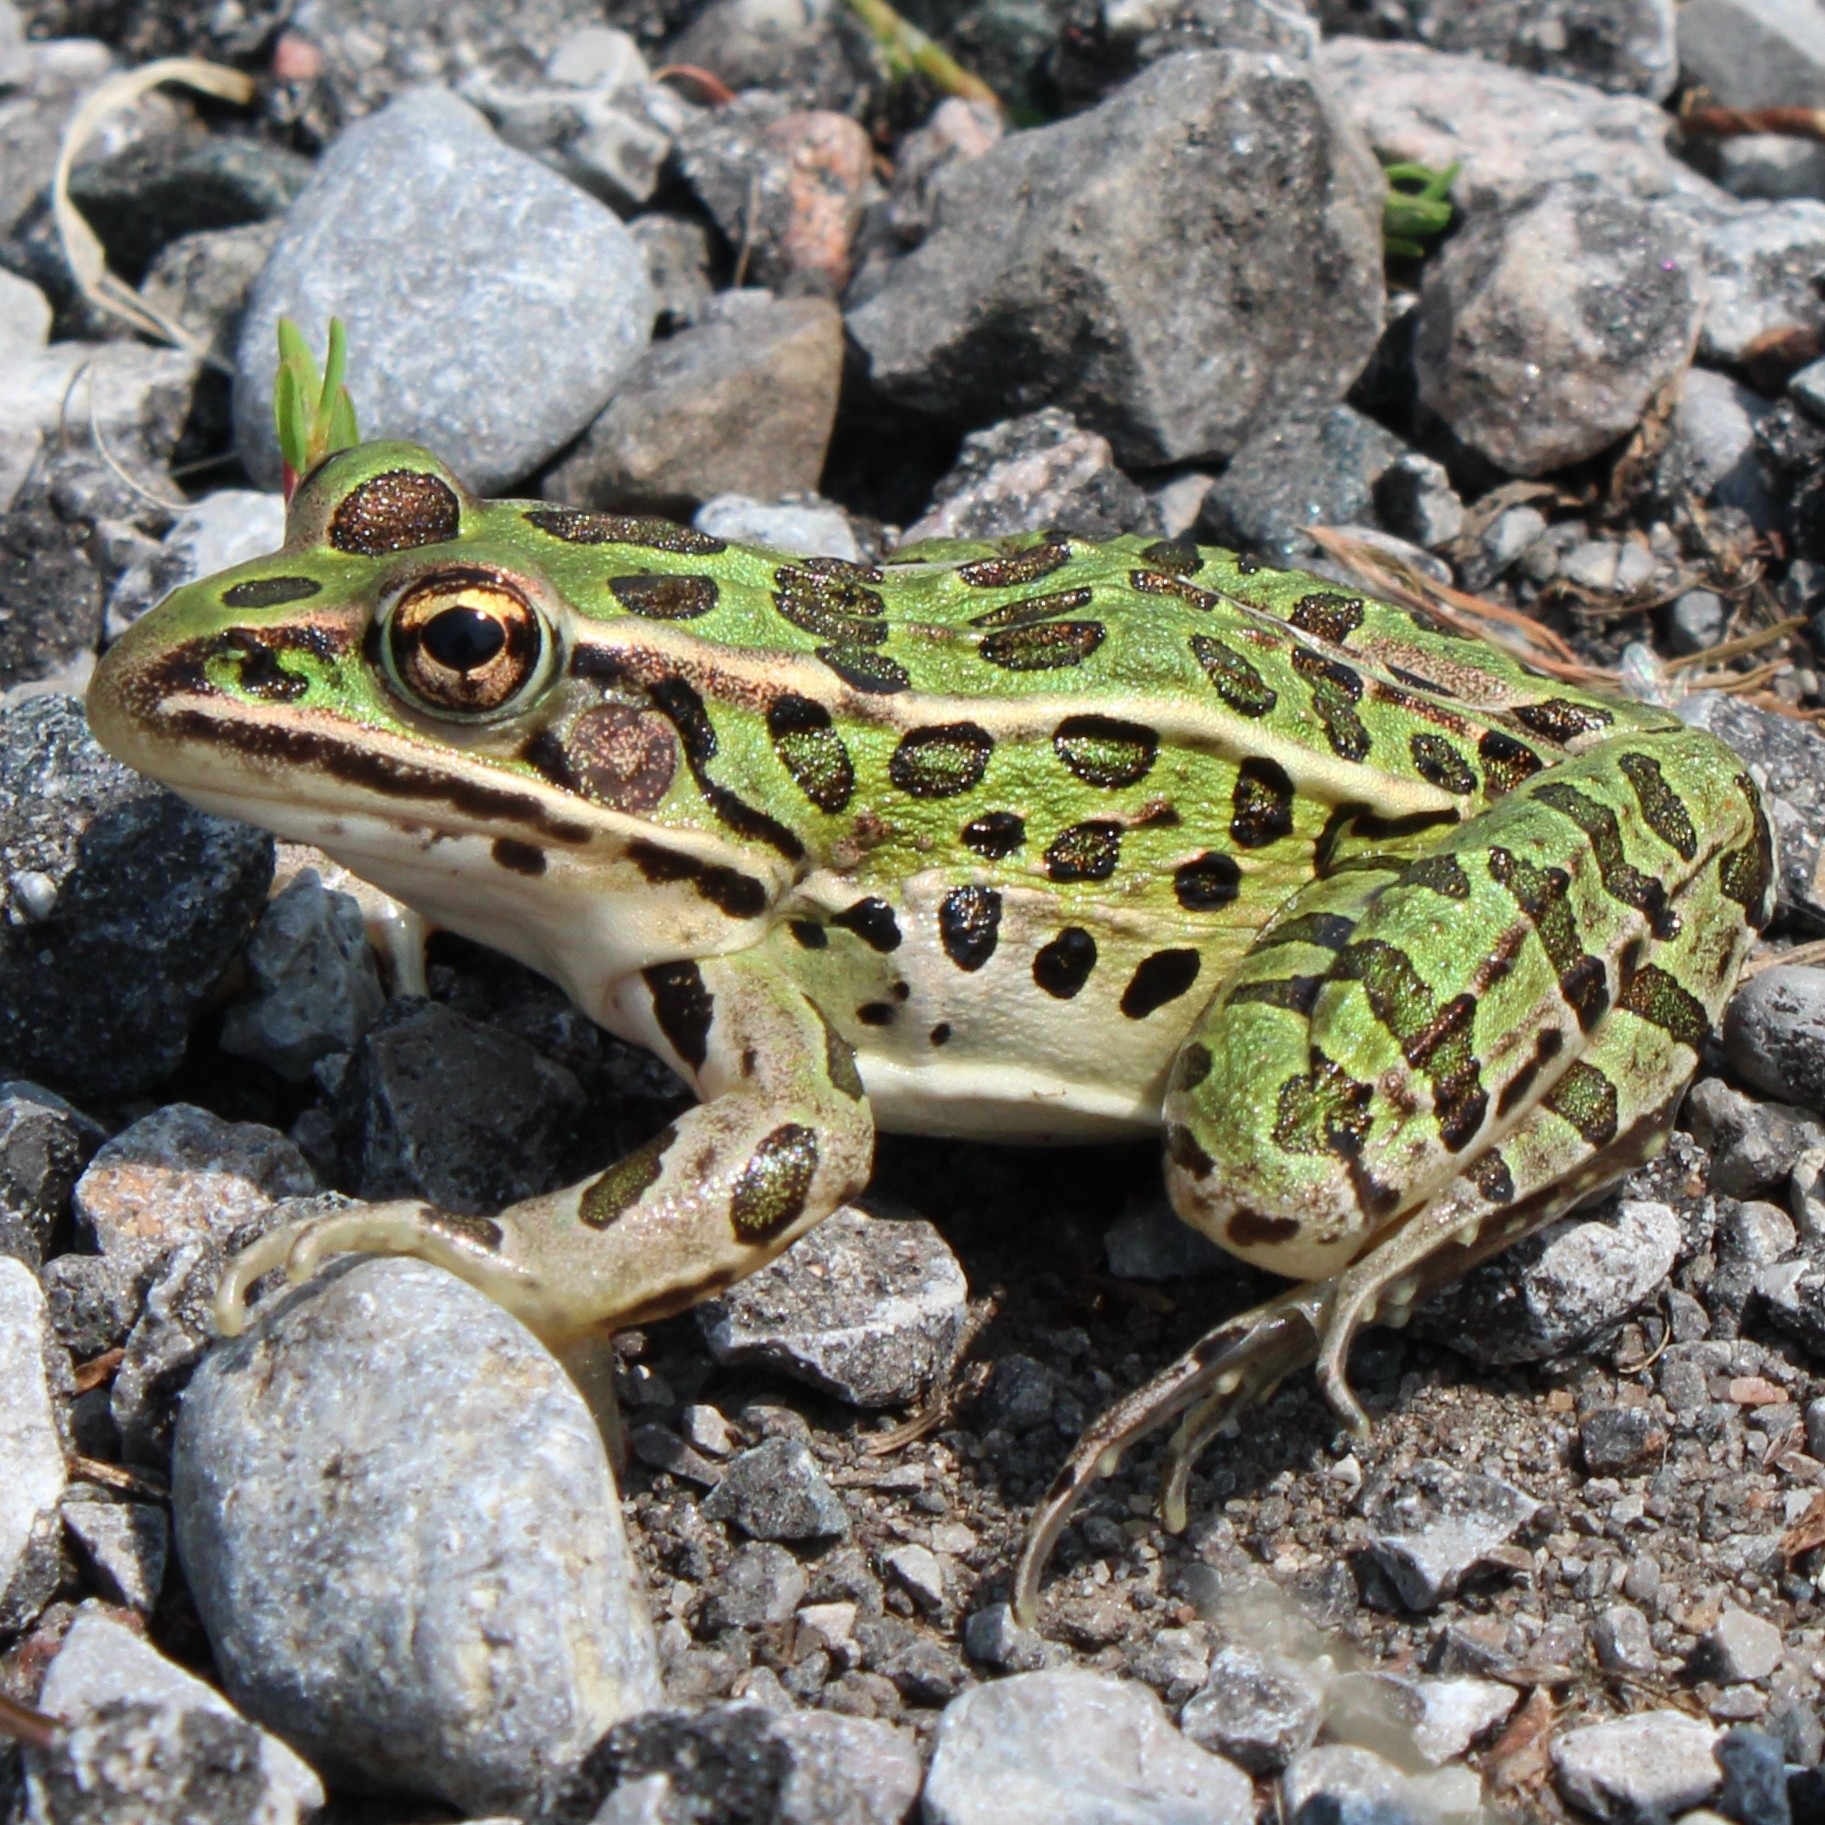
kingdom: Animalia
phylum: Chordata
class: Amphibia
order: Anura
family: Ranidae
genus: Lithobates
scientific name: Lithobates pipiens
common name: Northern leopard frog
